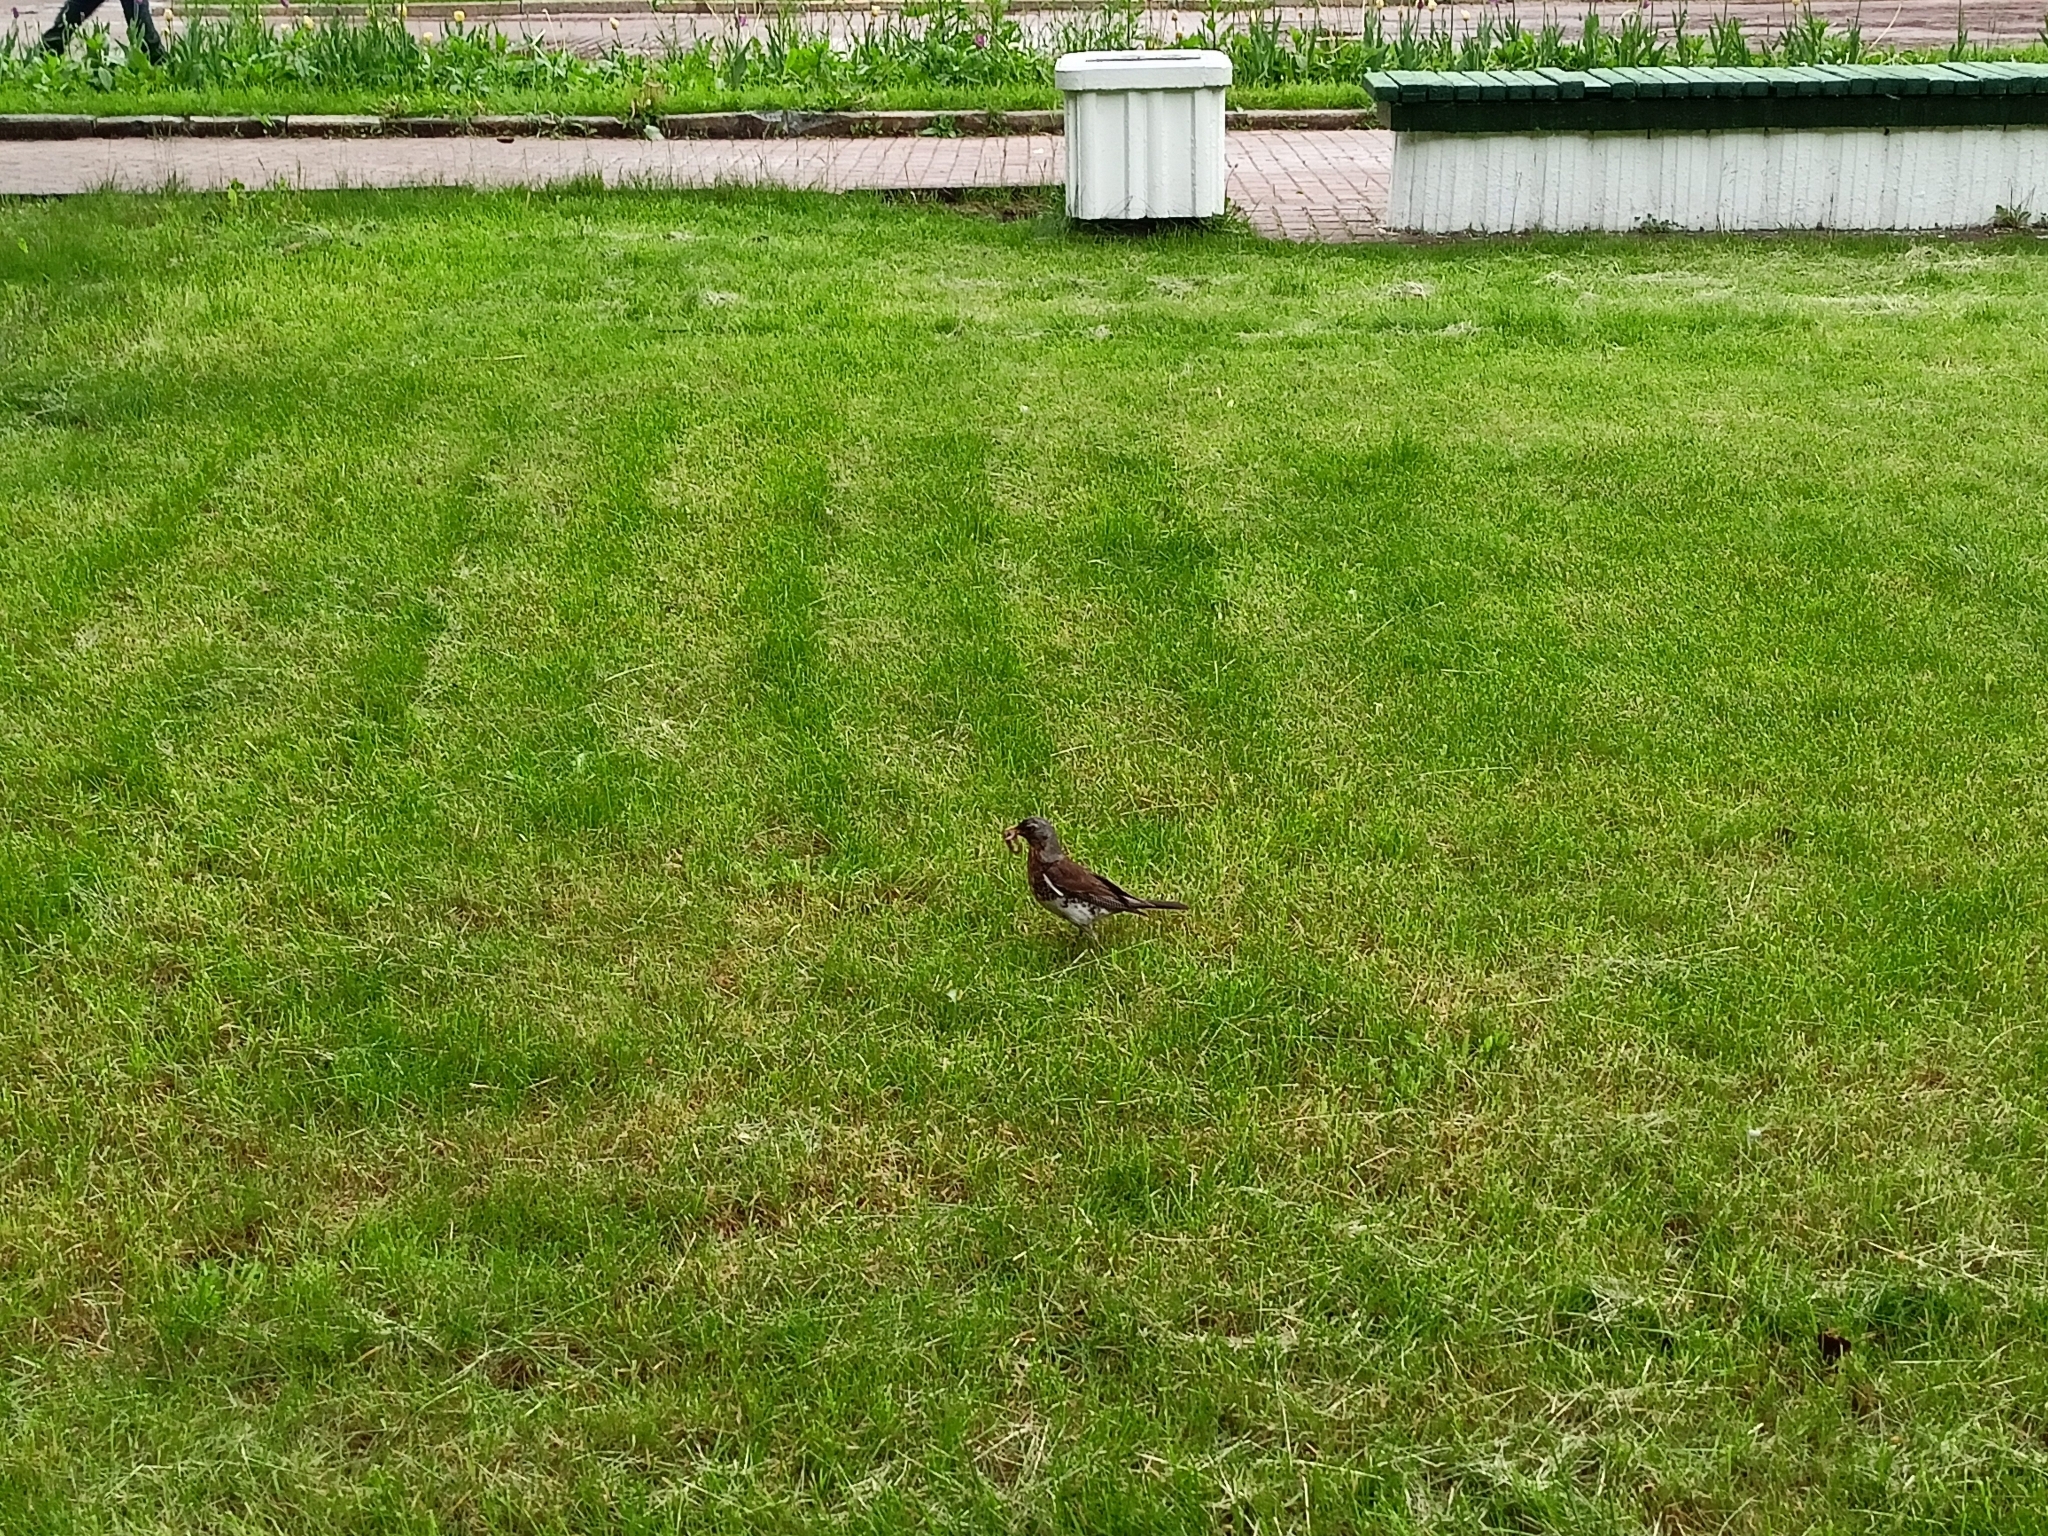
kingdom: Animalia
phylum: Chordata
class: Aves
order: Passeriformes
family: Turdidae
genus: Turdus
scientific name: Turdus pilaris
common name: Fieldfare
